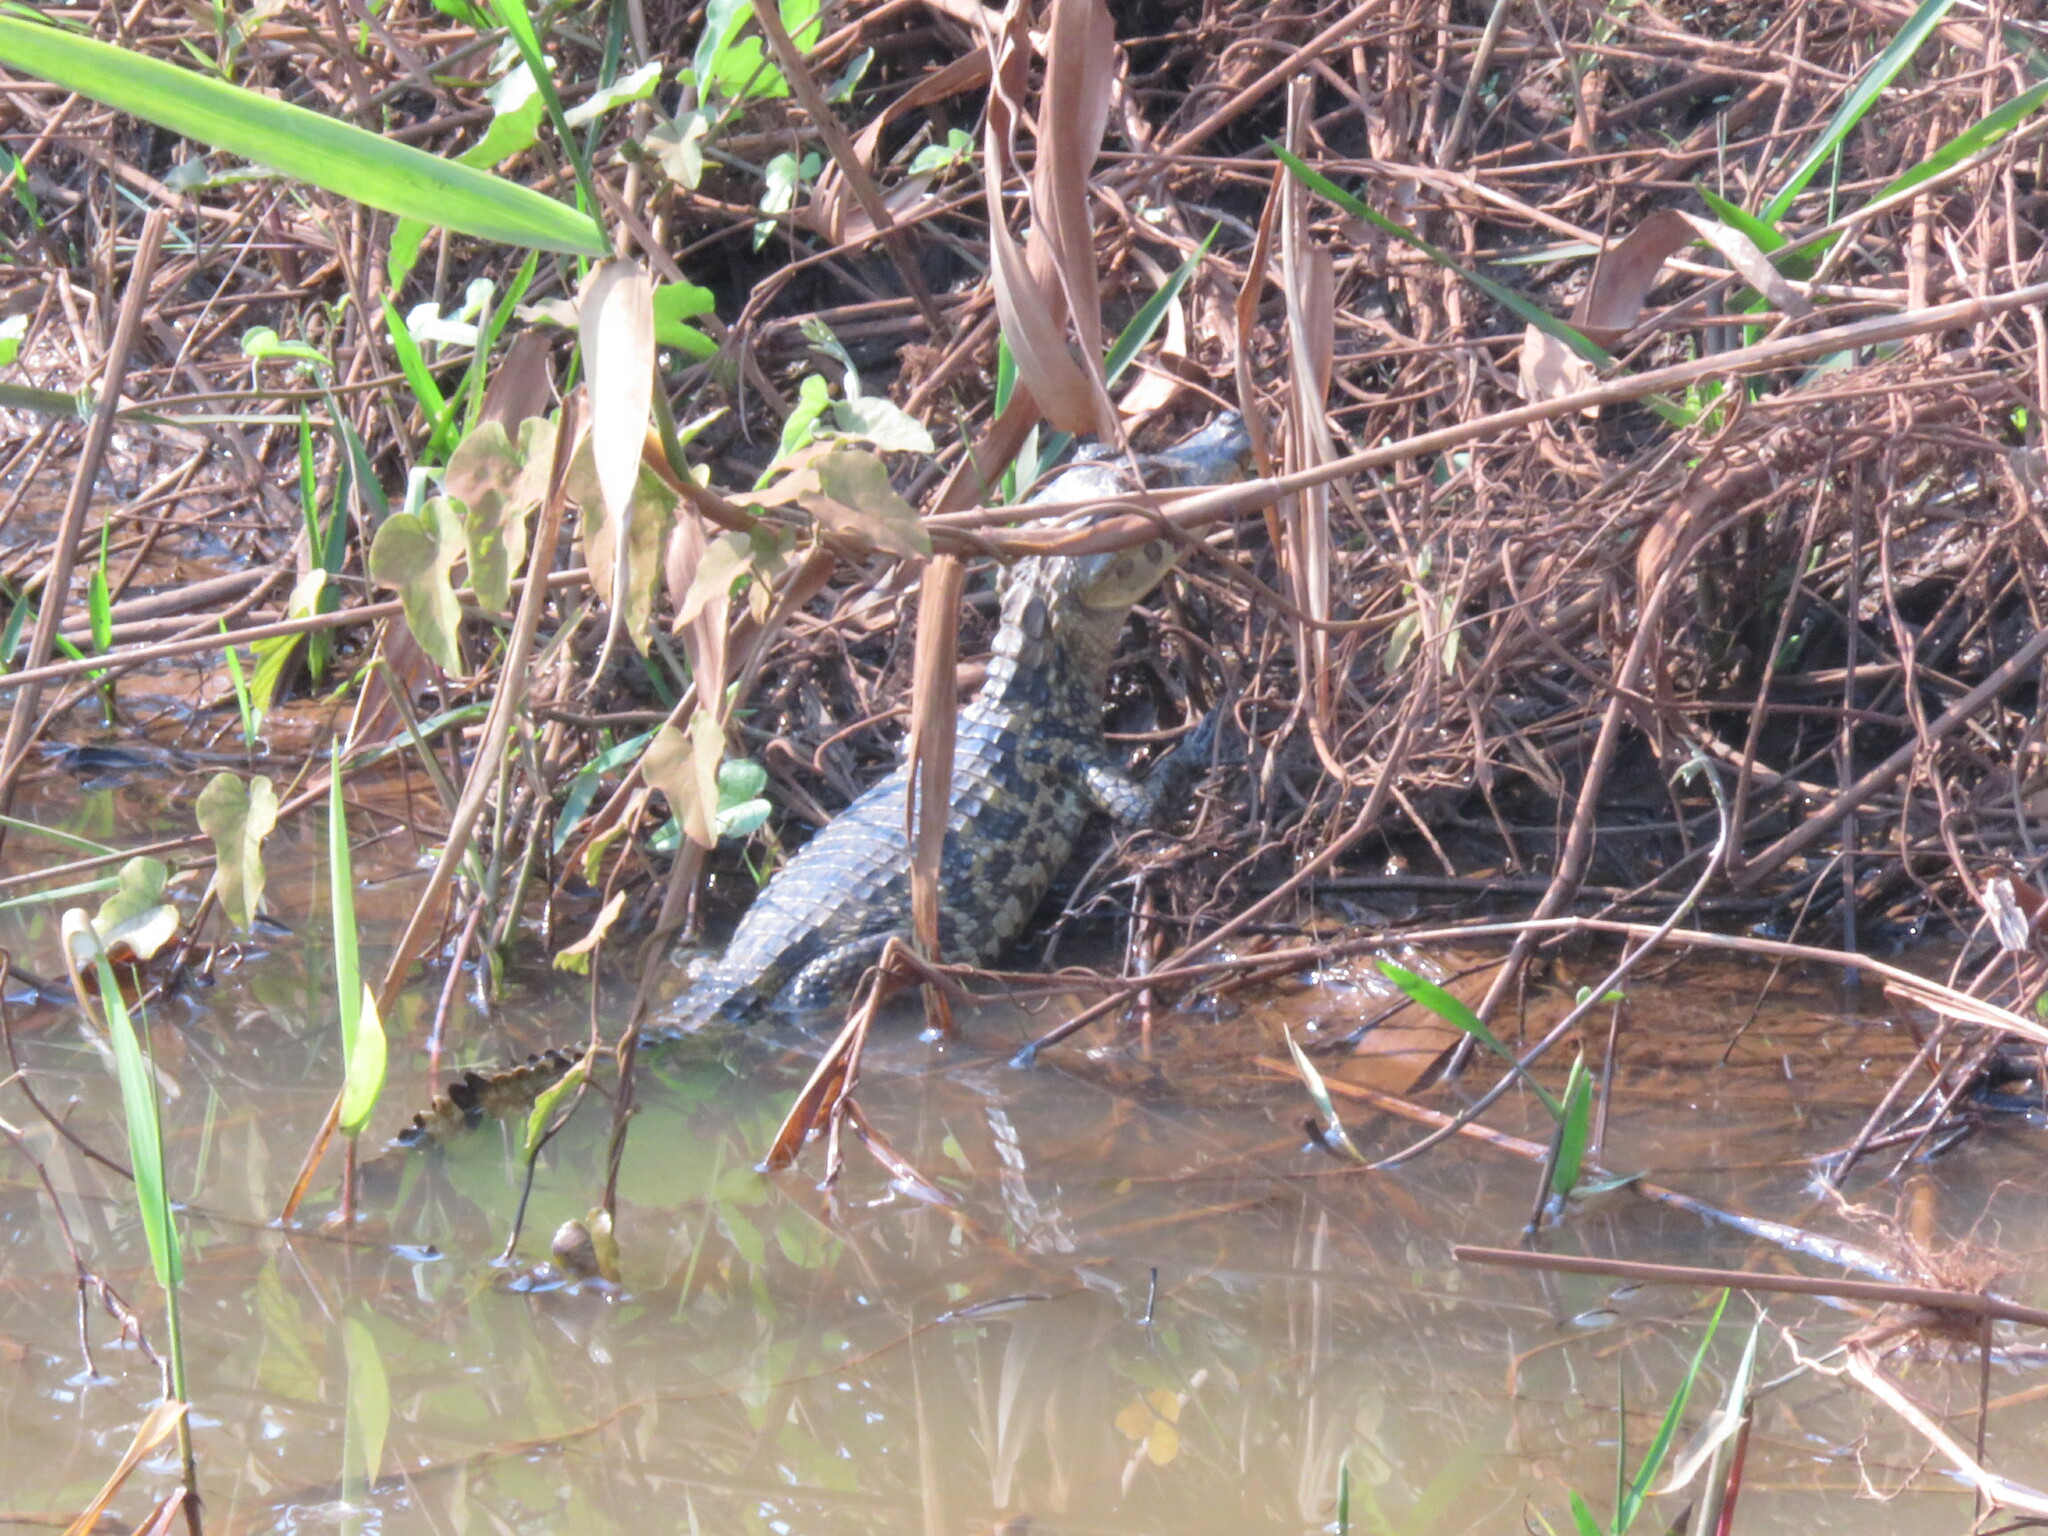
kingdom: Animalia
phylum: Chordata
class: Crocodylia
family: Alligatoridae
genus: Caiman
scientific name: Caiman yacare
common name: Yacare caiman
